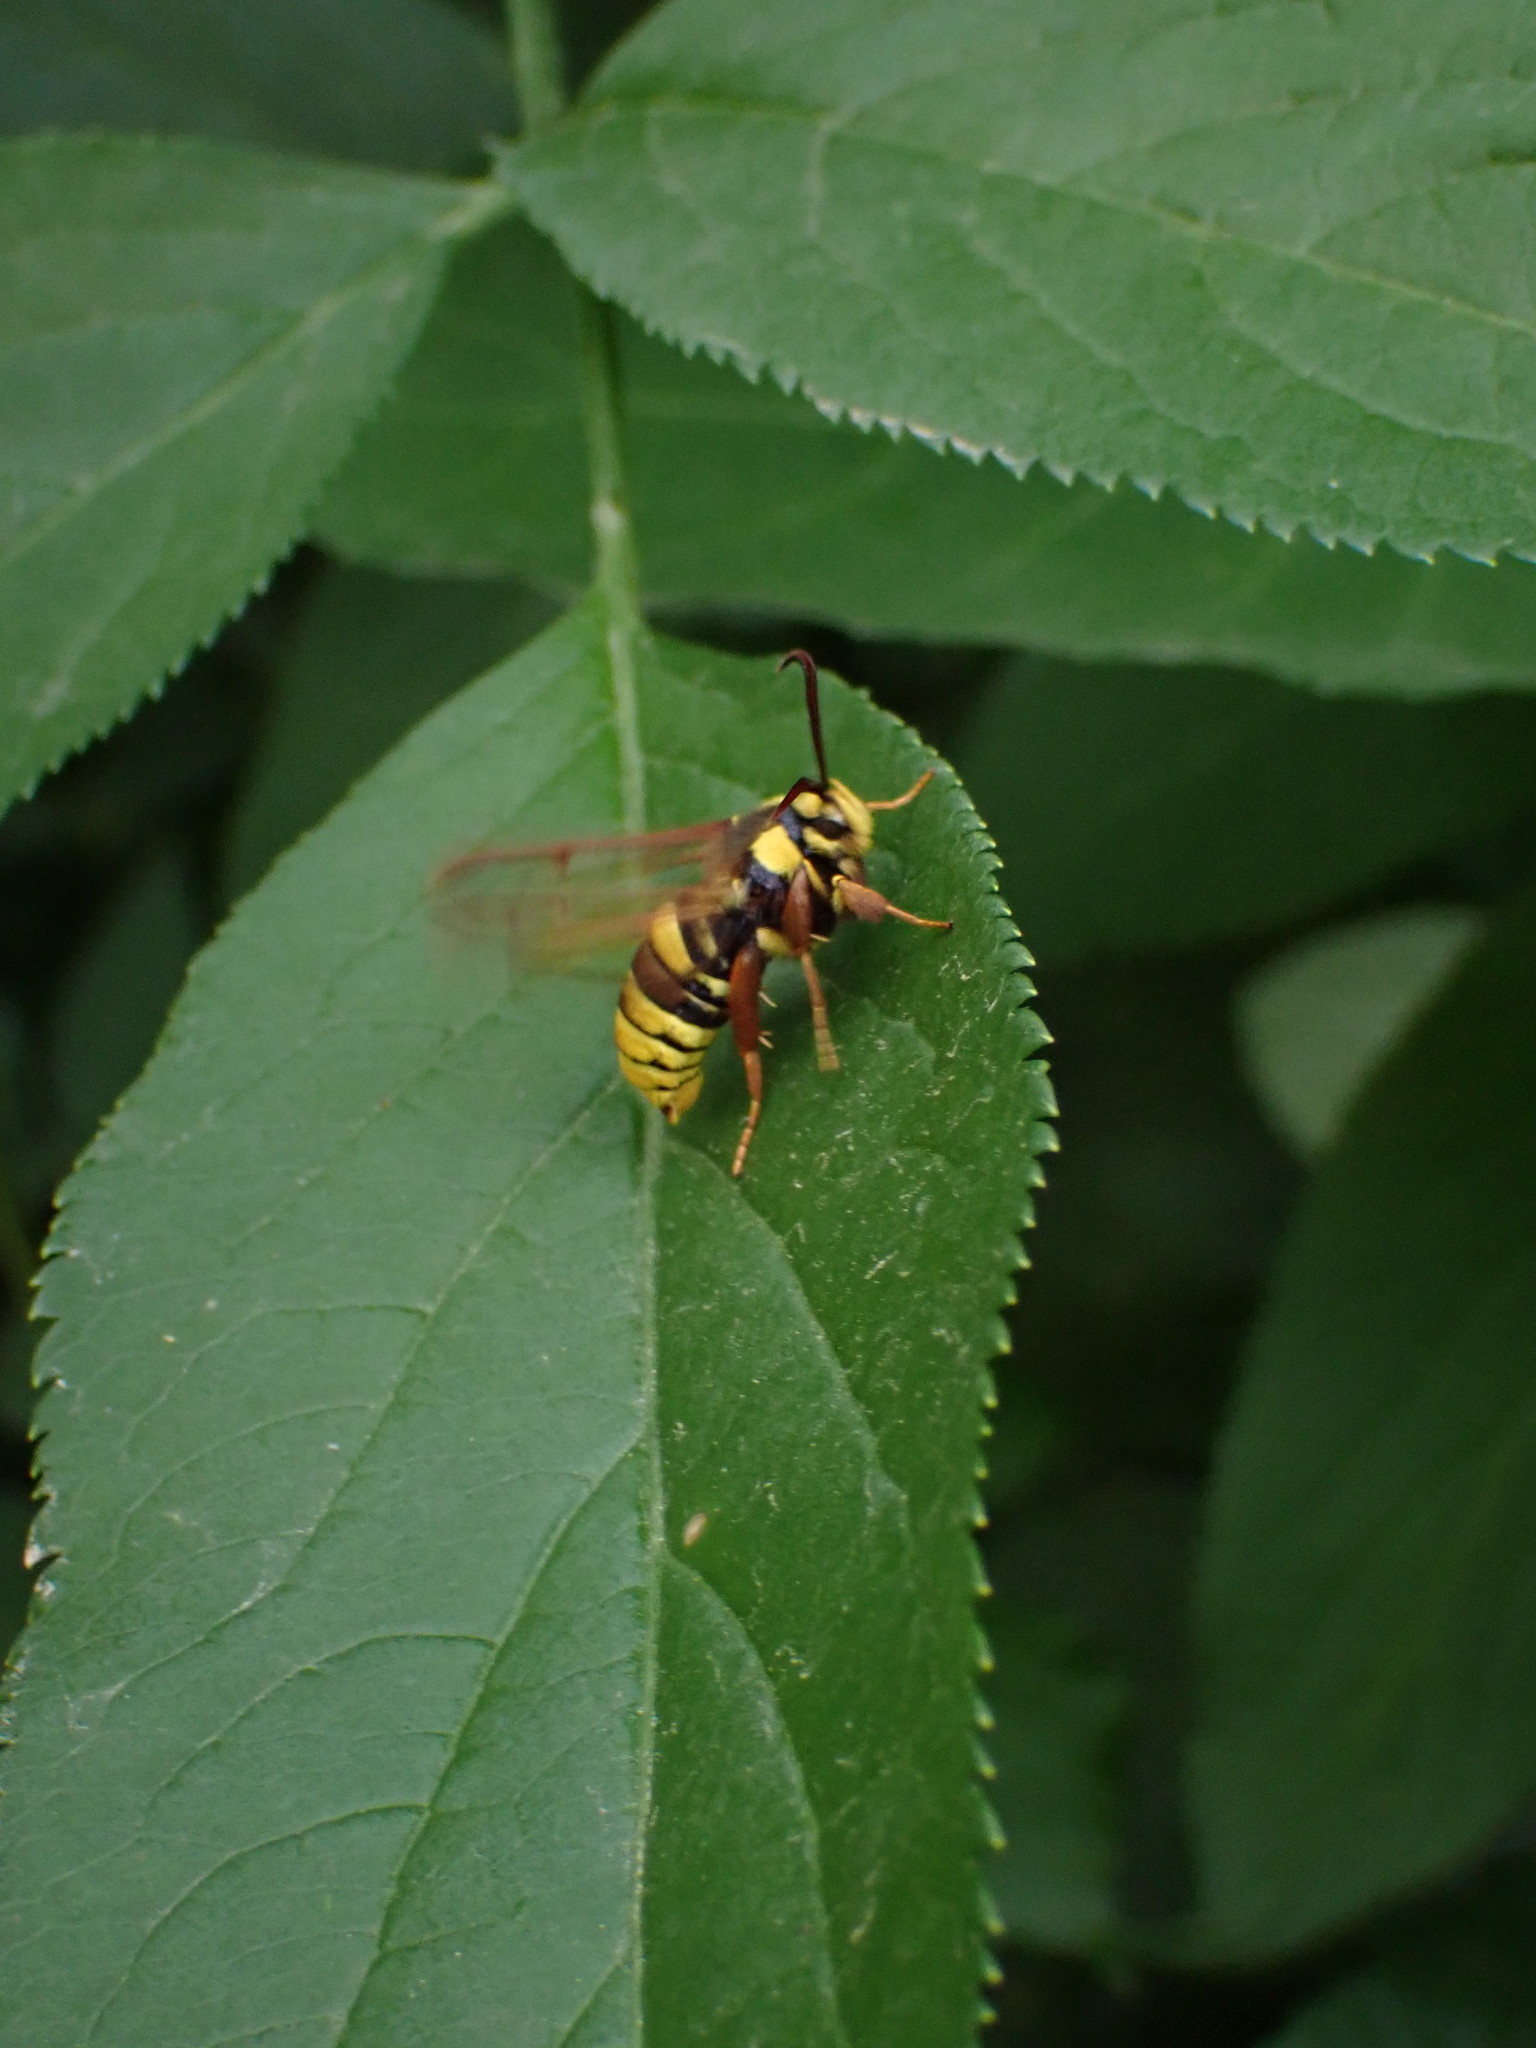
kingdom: Animalia
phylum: Arthropoda
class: Insecta
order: Lepidoptera
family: Sesiidae
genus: Sesia
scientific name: Sesia apiformis
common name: Hornet moth
